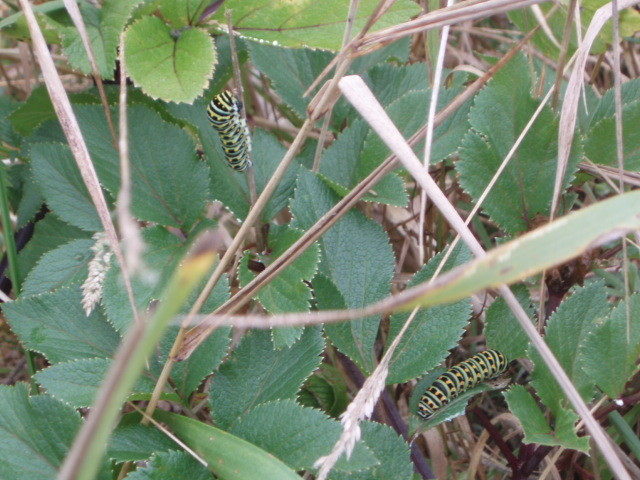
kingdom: Animalia
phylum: Arthropoda
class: Insecta
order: Lepidoptera
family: Papilionidae
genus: Papilio
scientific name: Papilio zelicaon
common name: Anise swallowtail
